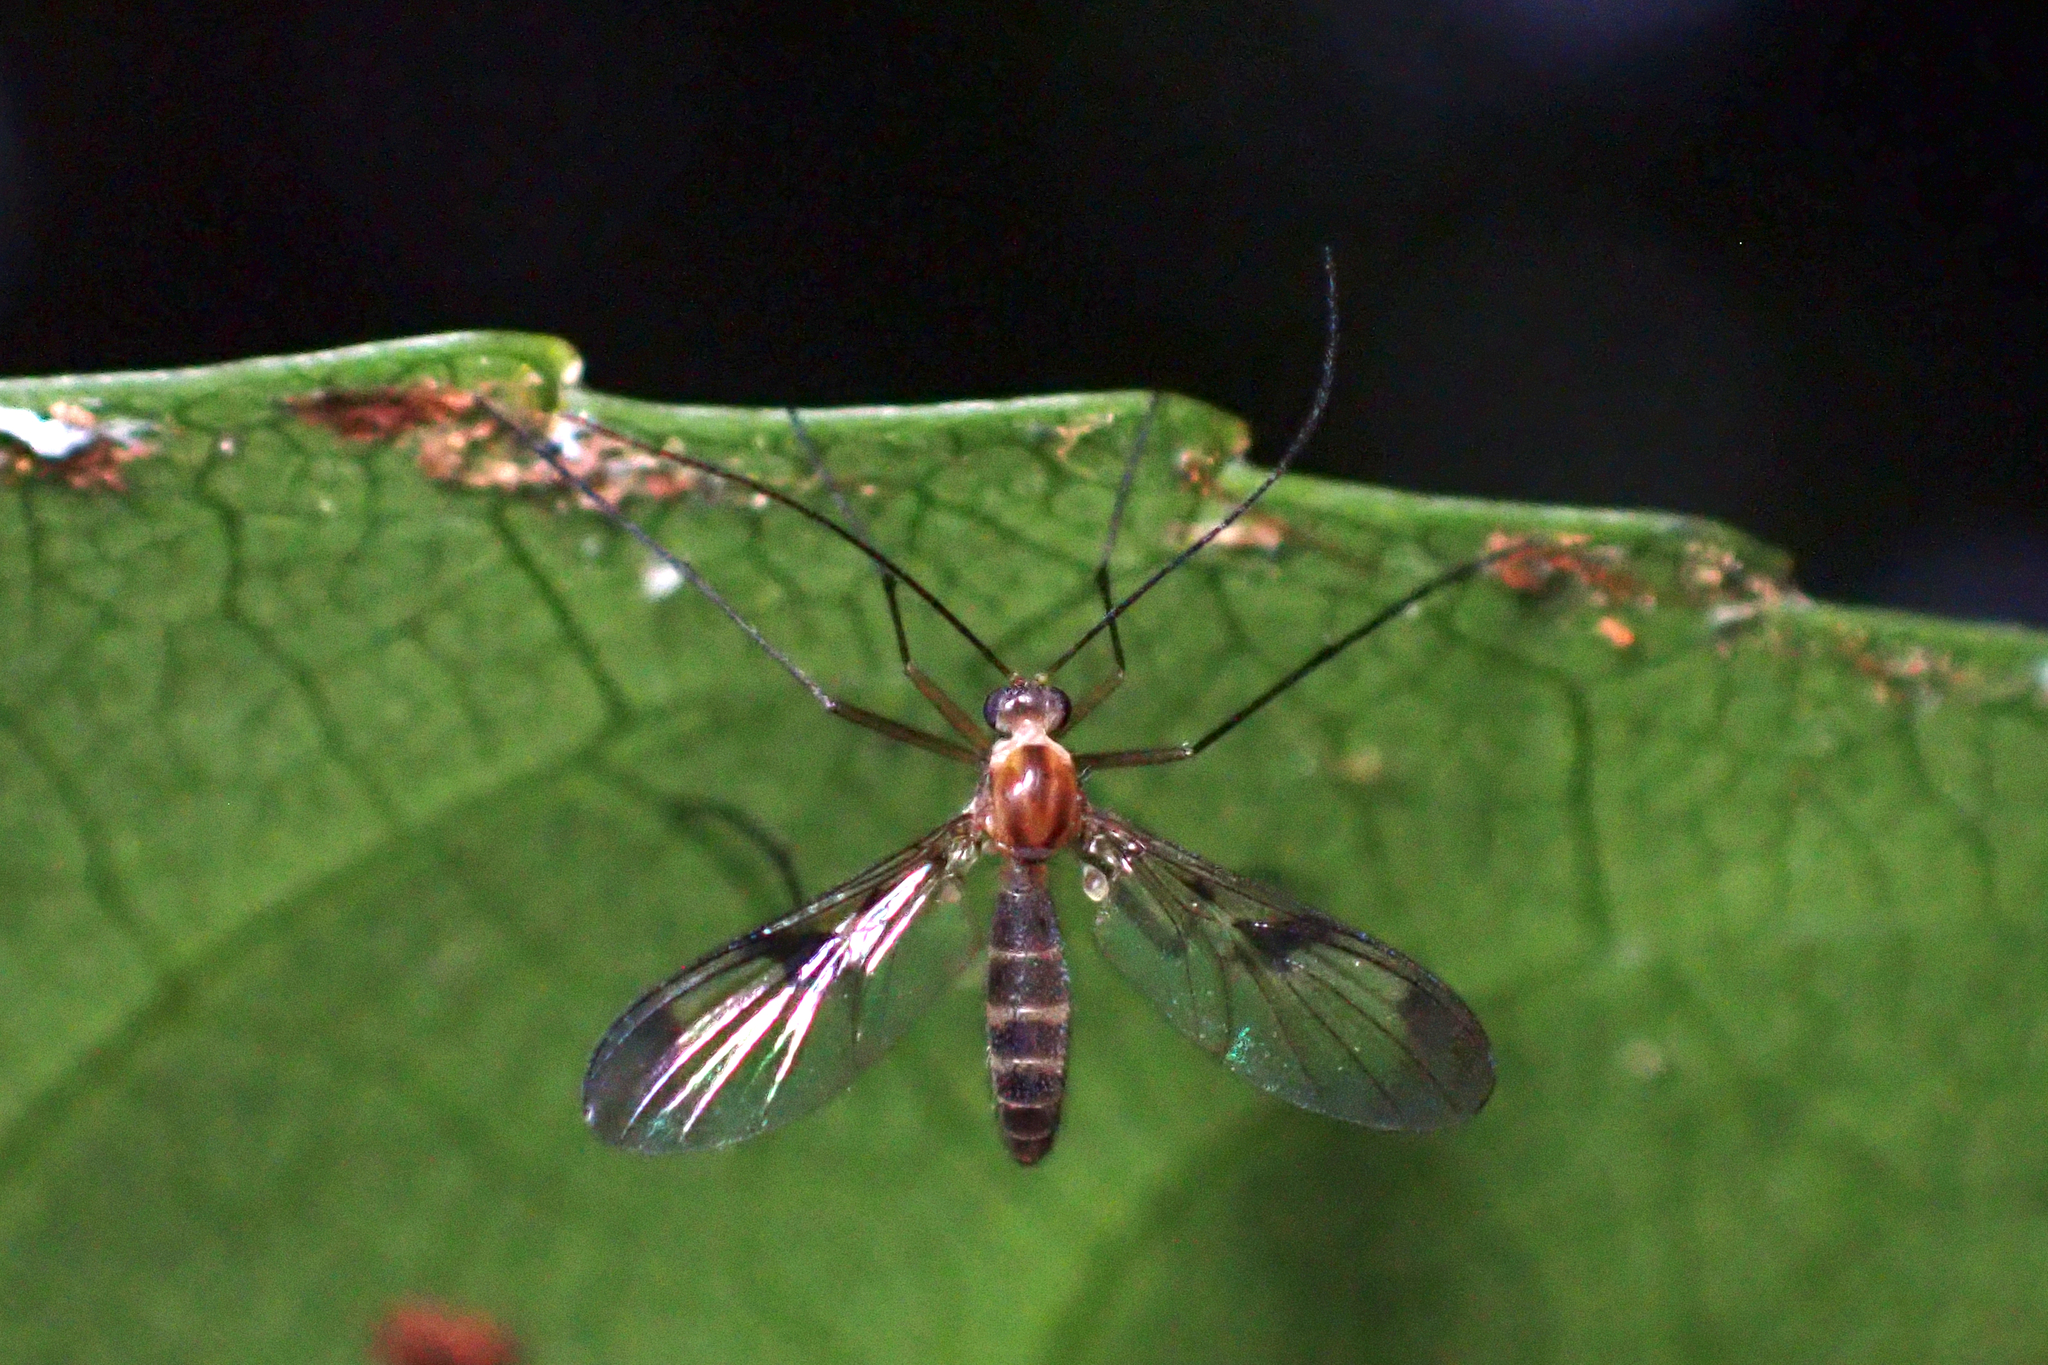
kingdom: Animalia
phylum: Arthropoda
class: Insecta
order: Diptera
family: Keroplatidae
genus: Macrocera
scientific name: Macrocera scoparia
